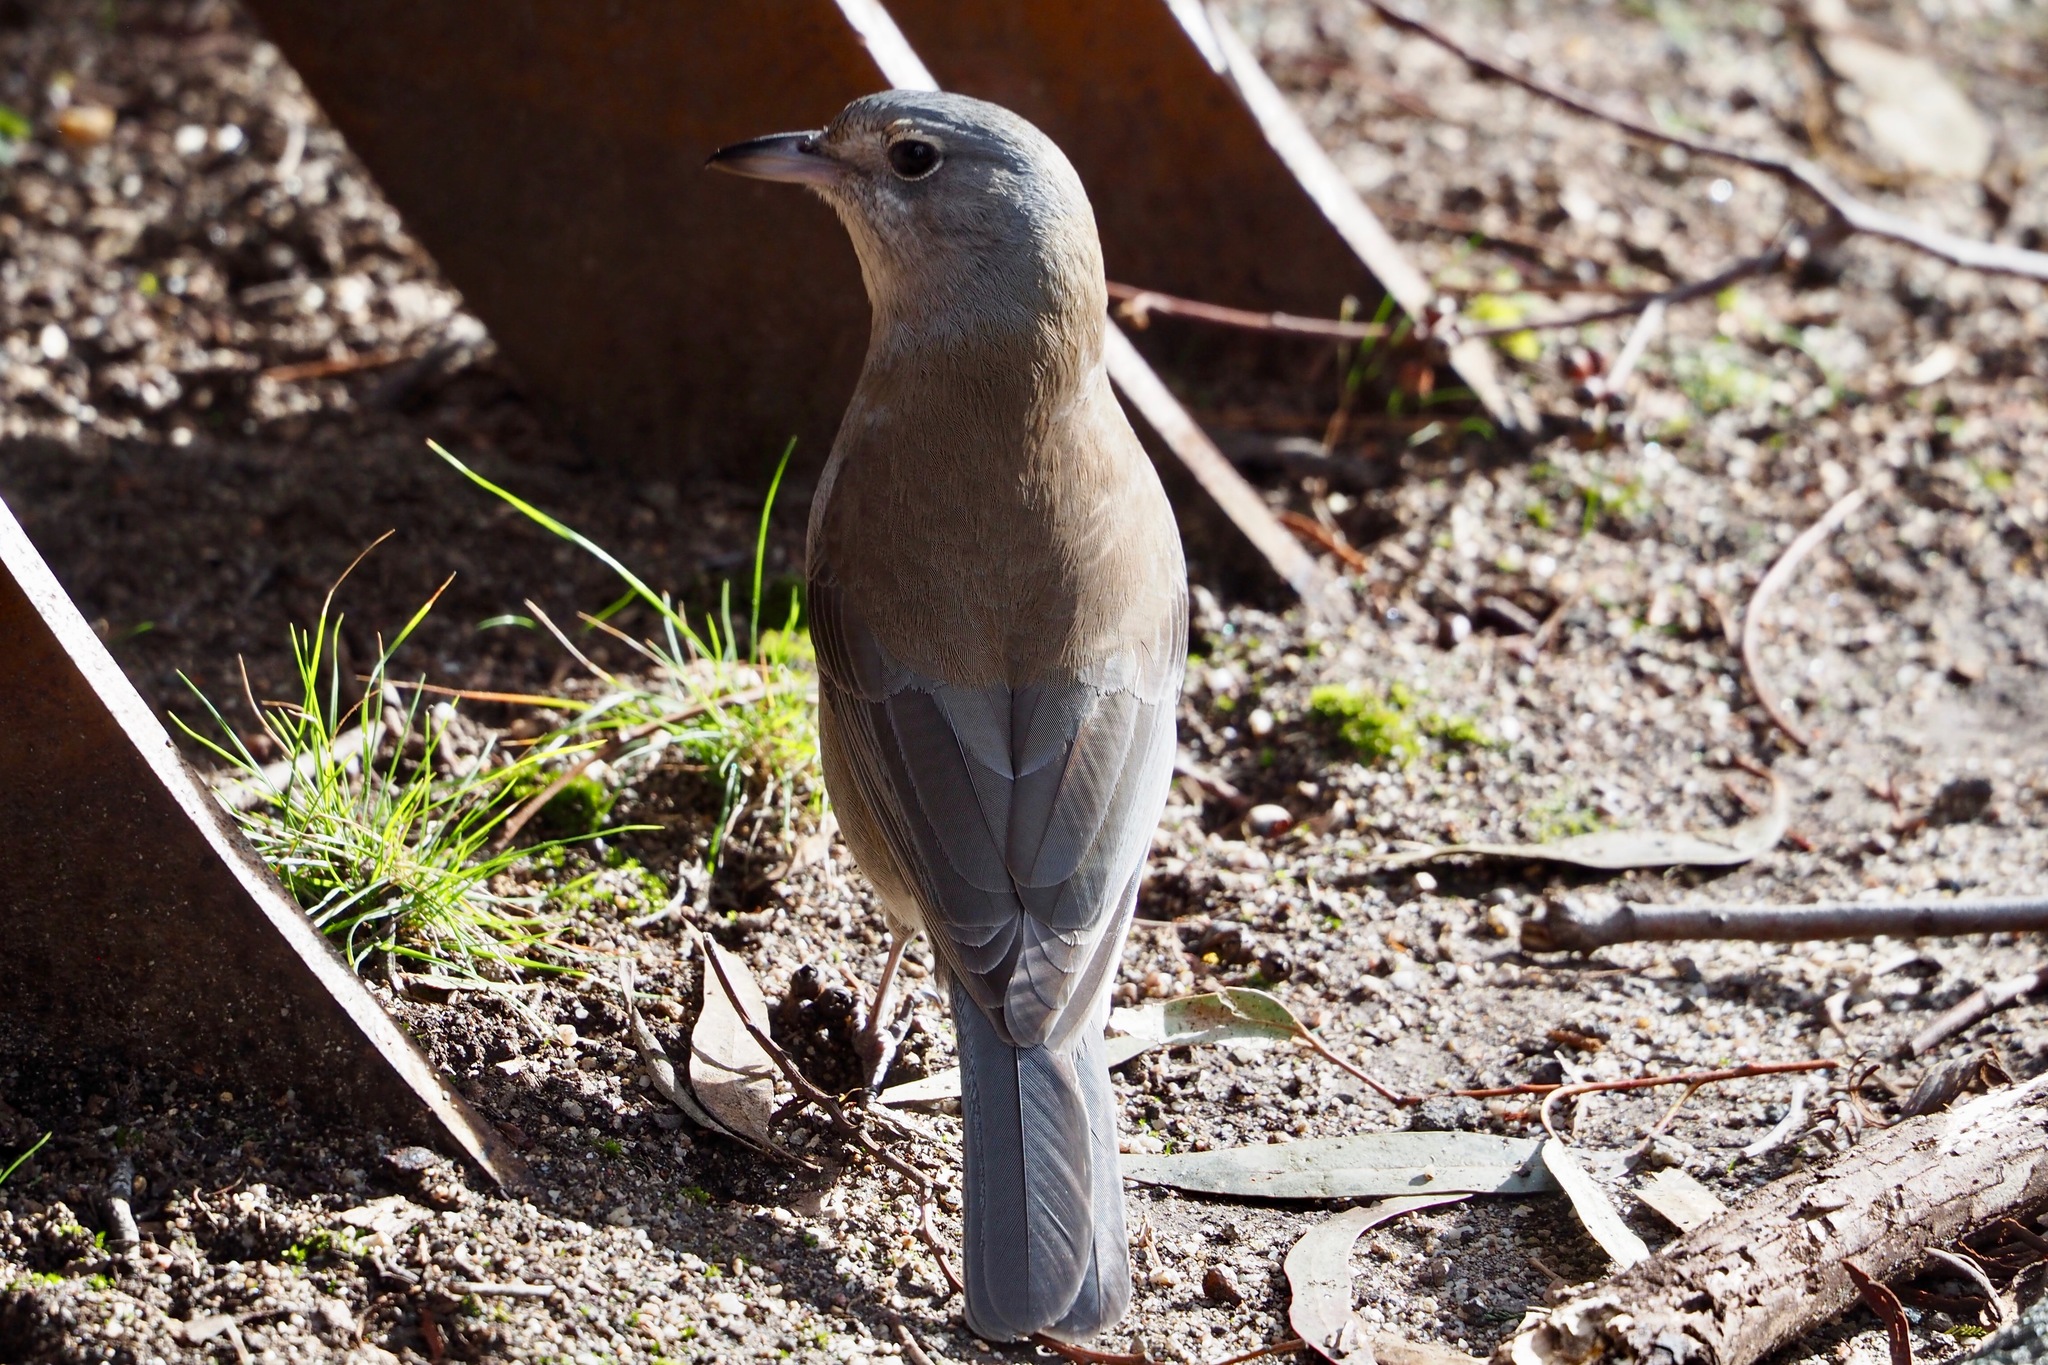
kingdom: Animalia
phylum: Chordata
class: Aves
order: Passeriformes
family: Pachycephalidae
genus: Colluricincla
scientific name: Colluricincla harmonica
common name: Grey shrikethrush
